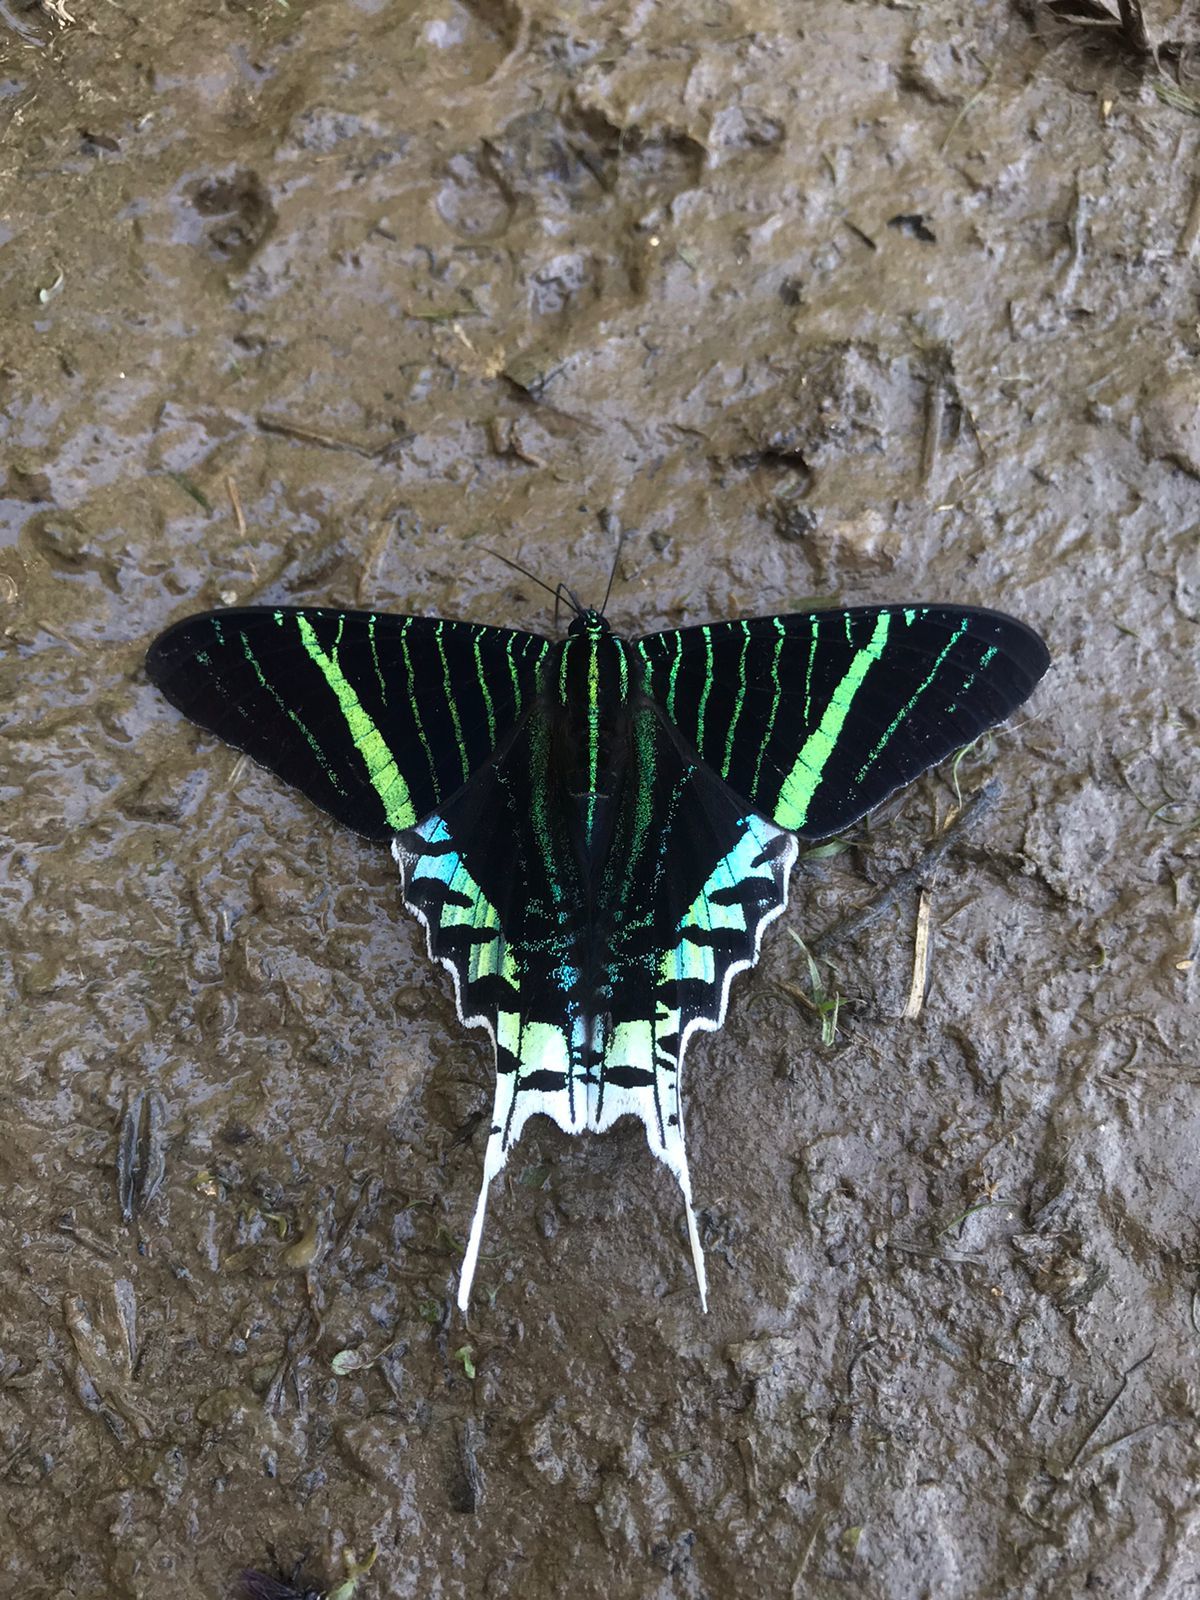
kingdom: Animalia
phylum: Arthropoda
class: Insecta
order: Lepidoptera
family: Uraniidae
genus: Urania
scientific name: Urania leilus
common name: Peacock moth
